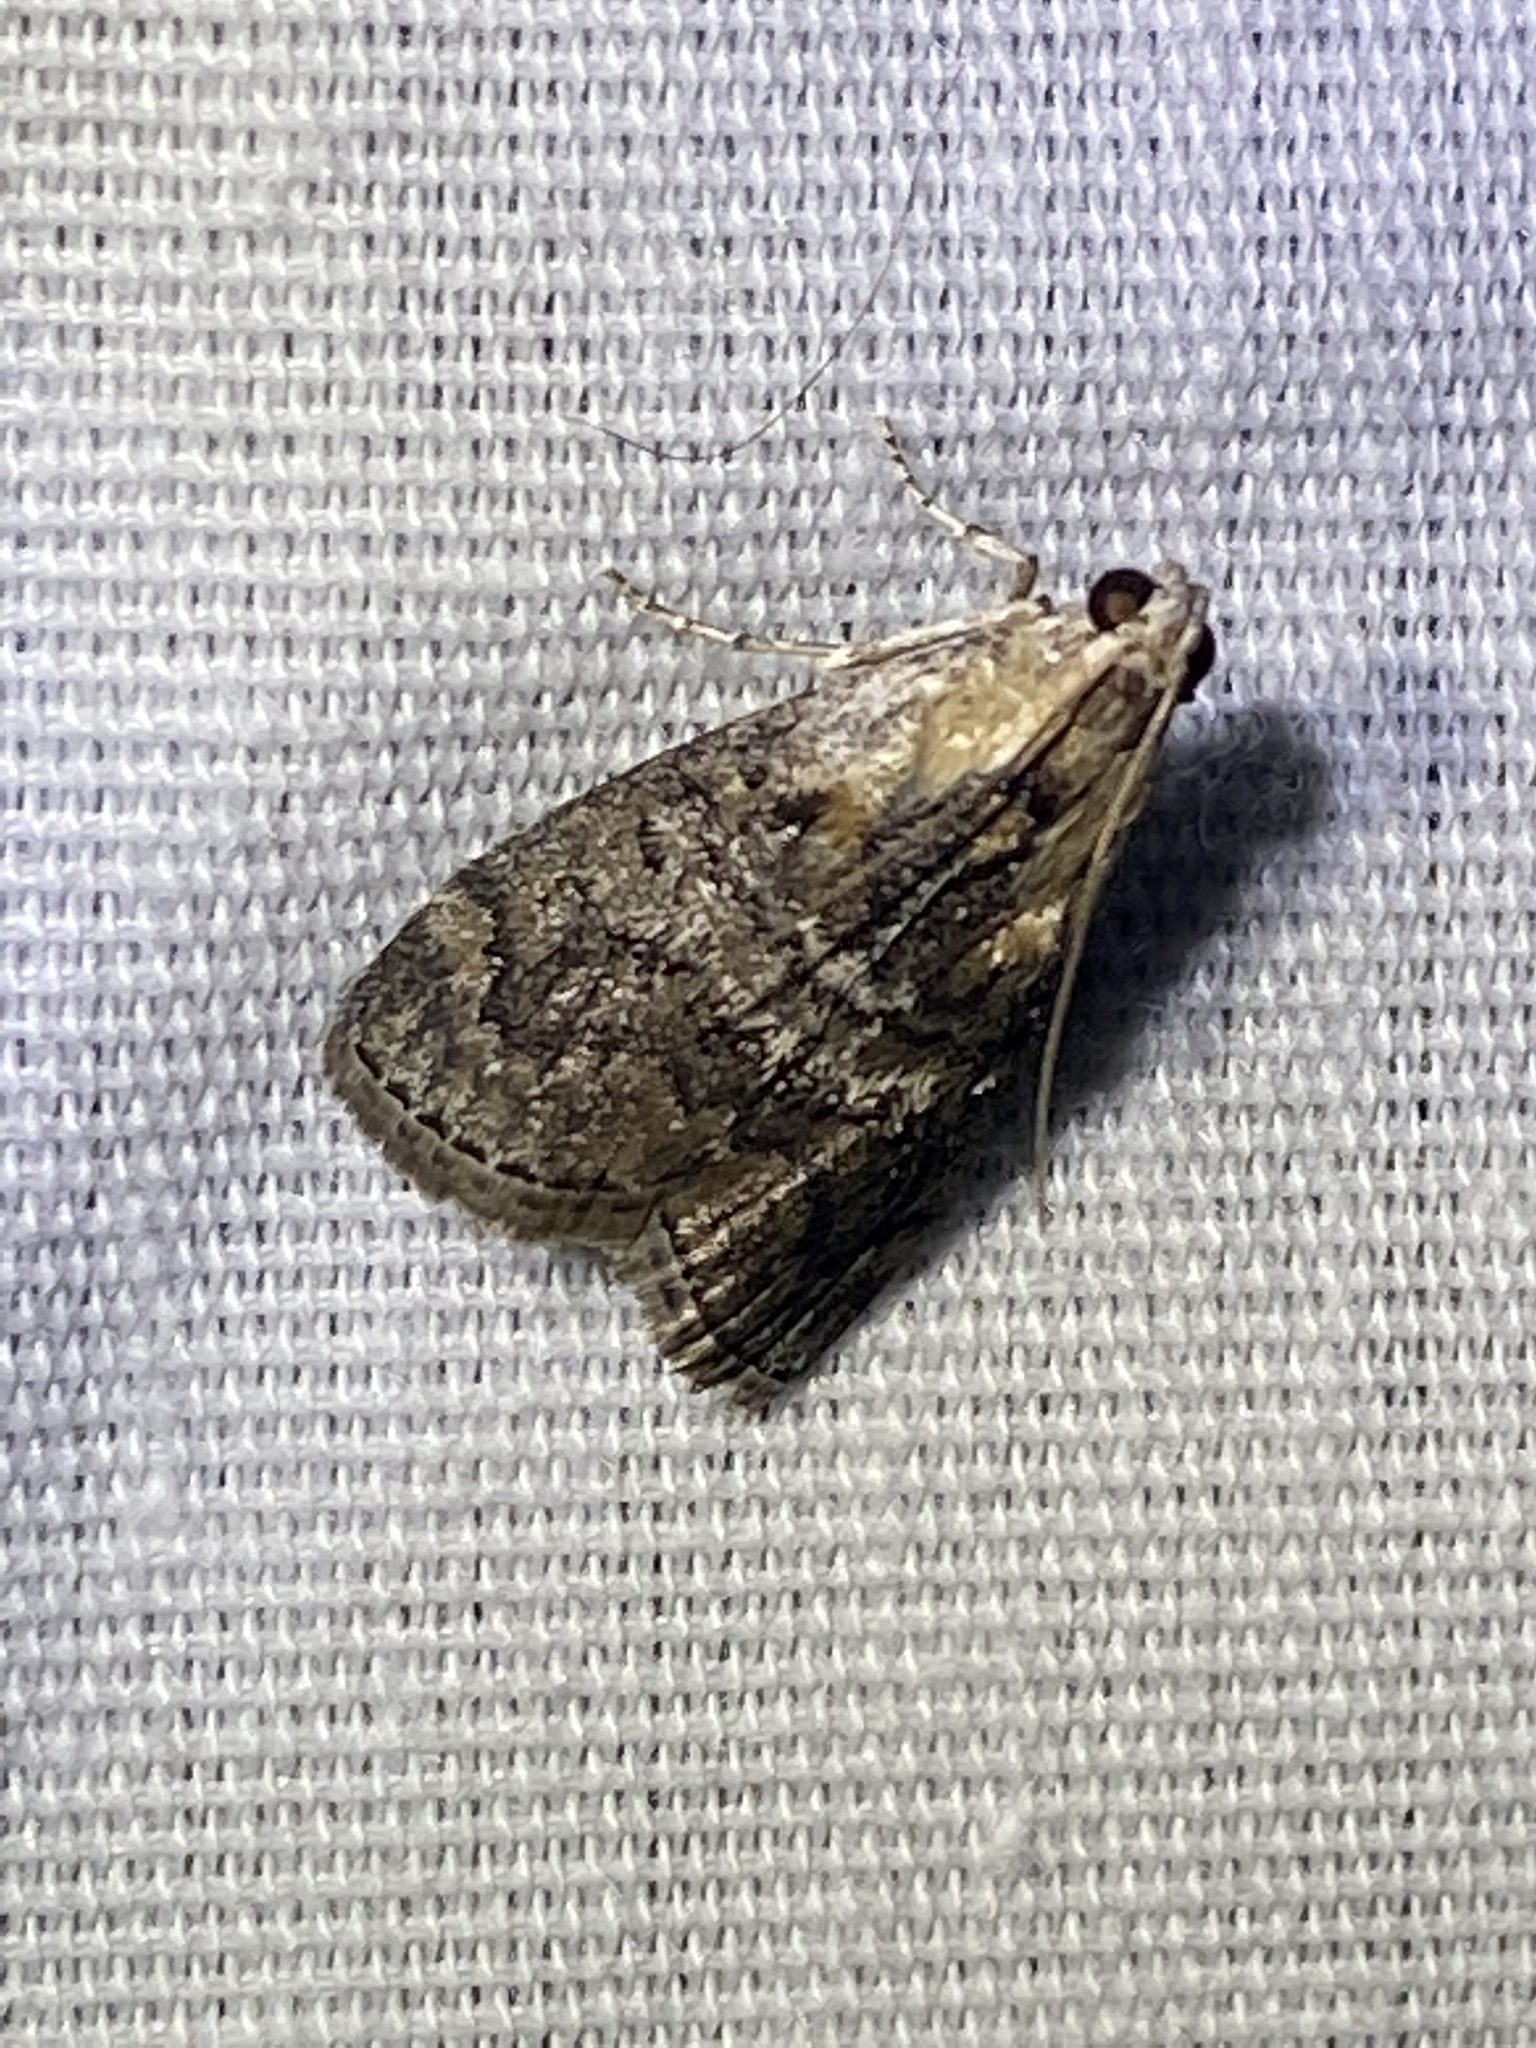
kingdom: Animalia
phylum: Arthropoda
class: Insecta
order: Lepidoptera
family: Pyralidae
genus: Pococera
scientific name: Pococera expandens
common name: Striped oak webworm moth
